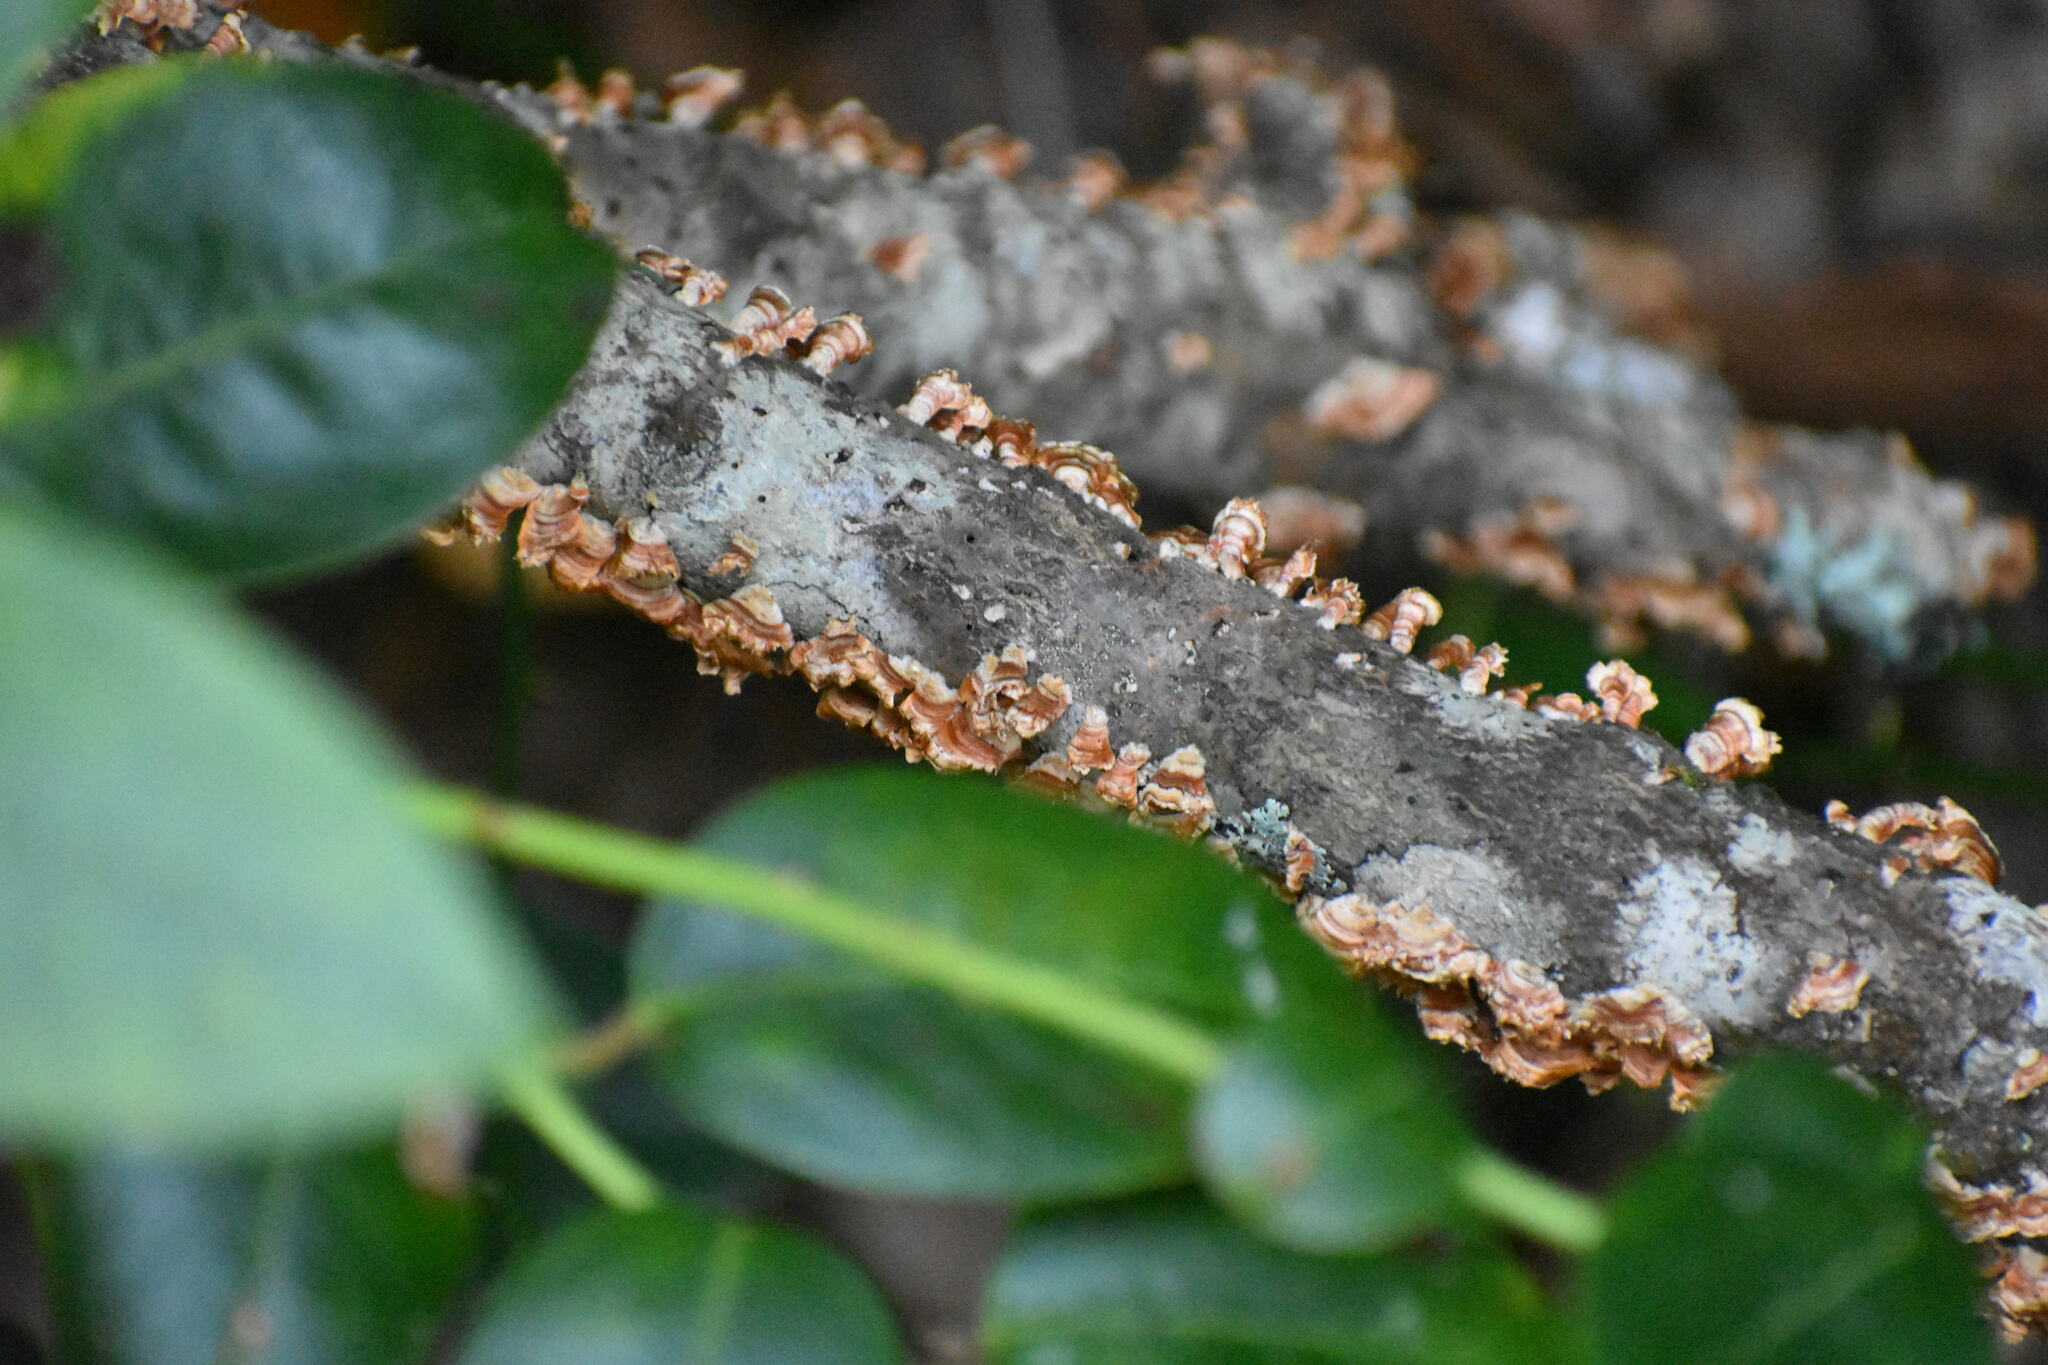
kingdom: Fungi
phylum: Basidiomycota
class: Agaricomycetes
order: Russulales
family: Stereaceae
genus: Stereum
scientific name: Stereum complicatum
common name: Crowded parchment
